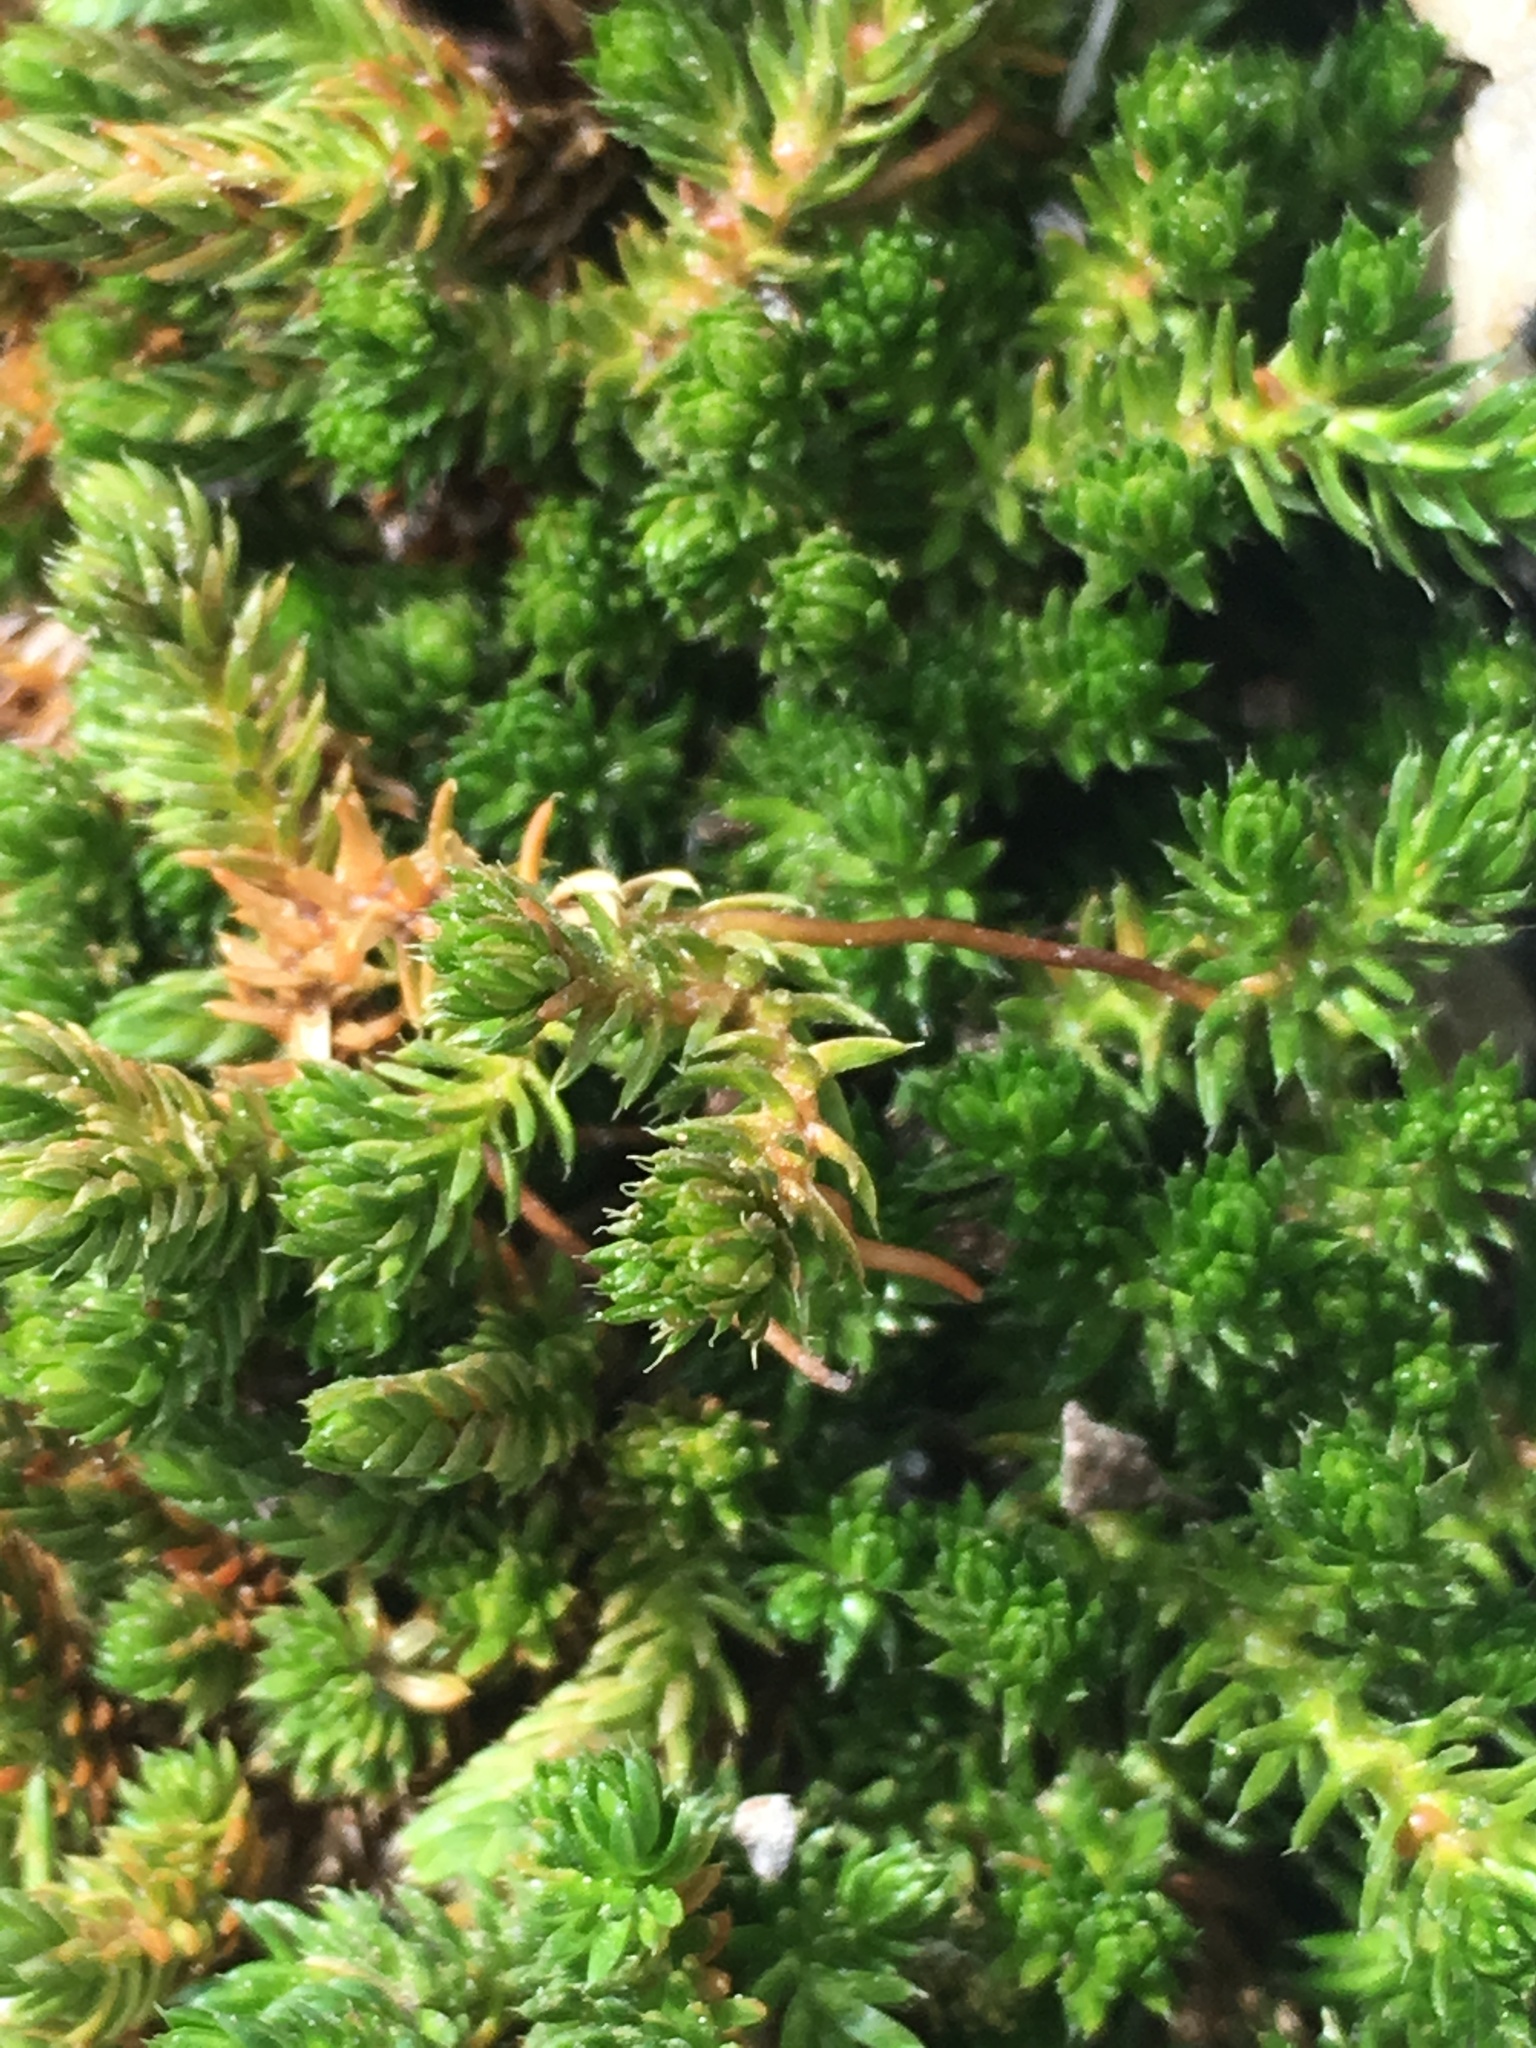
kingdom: Plantae
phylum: Tracheophyta
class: Lycopodiopsida
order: Selaginellales
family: Selaginellaceae
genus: Selaginella
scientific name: Selaginella watsonii
